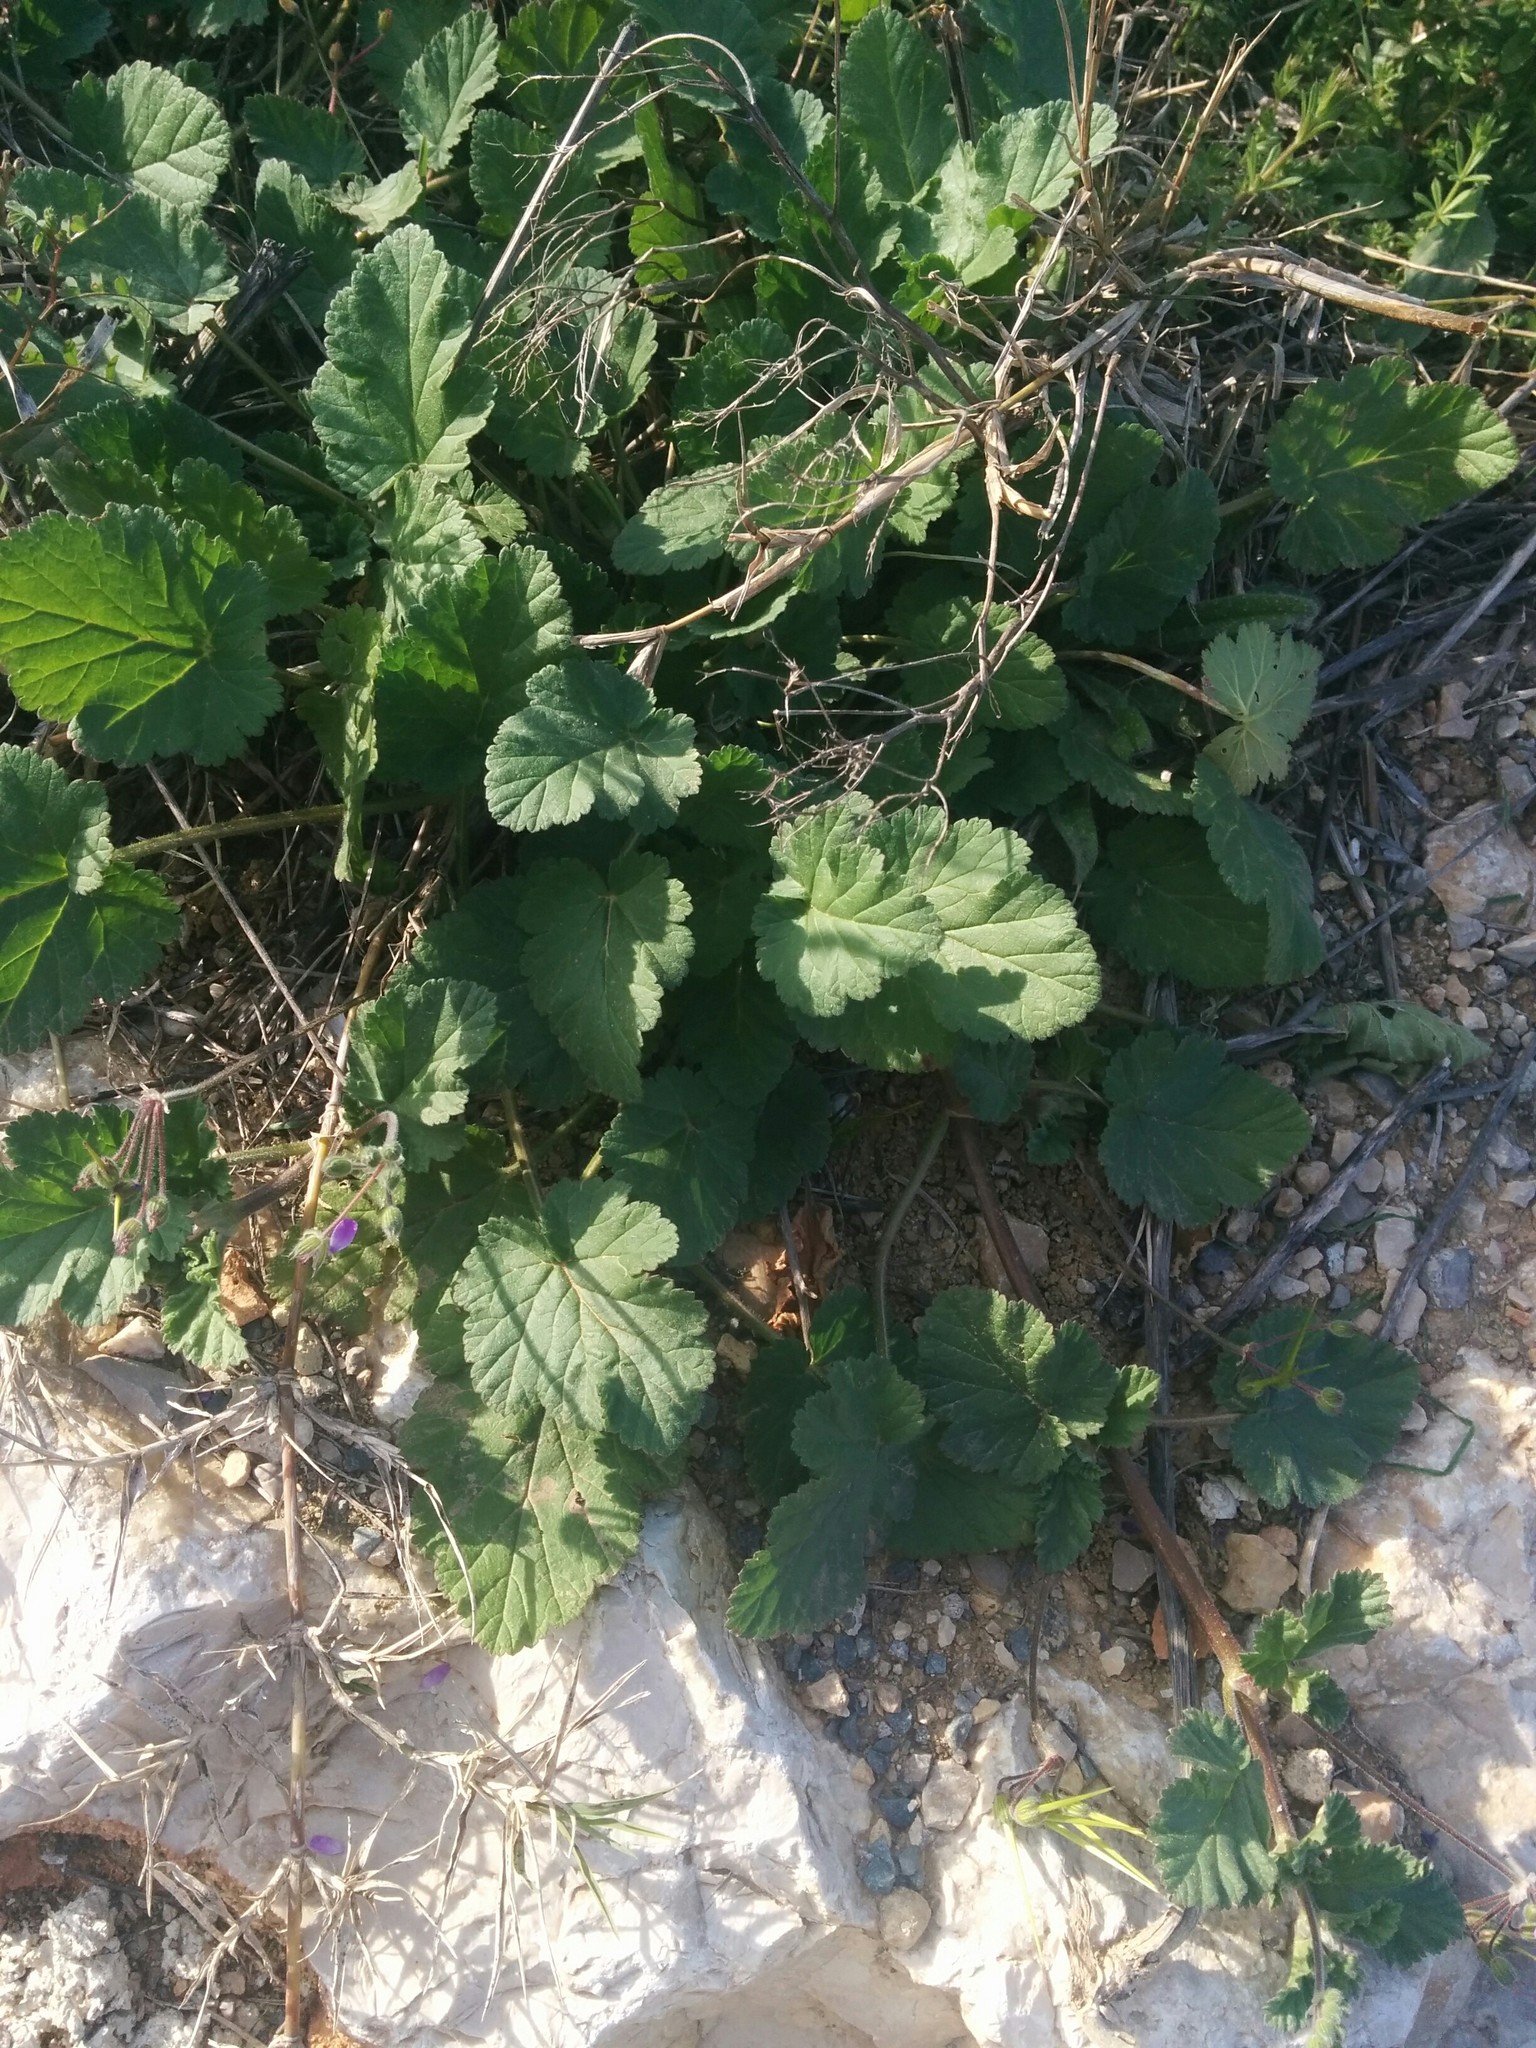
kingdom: Plantae
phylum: Tracheophyta
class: Magnoliopsida
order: Geraniales
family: Geraniaceae
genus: Erodium
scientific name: Erodium malacoides
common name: Soft stork's-bill
